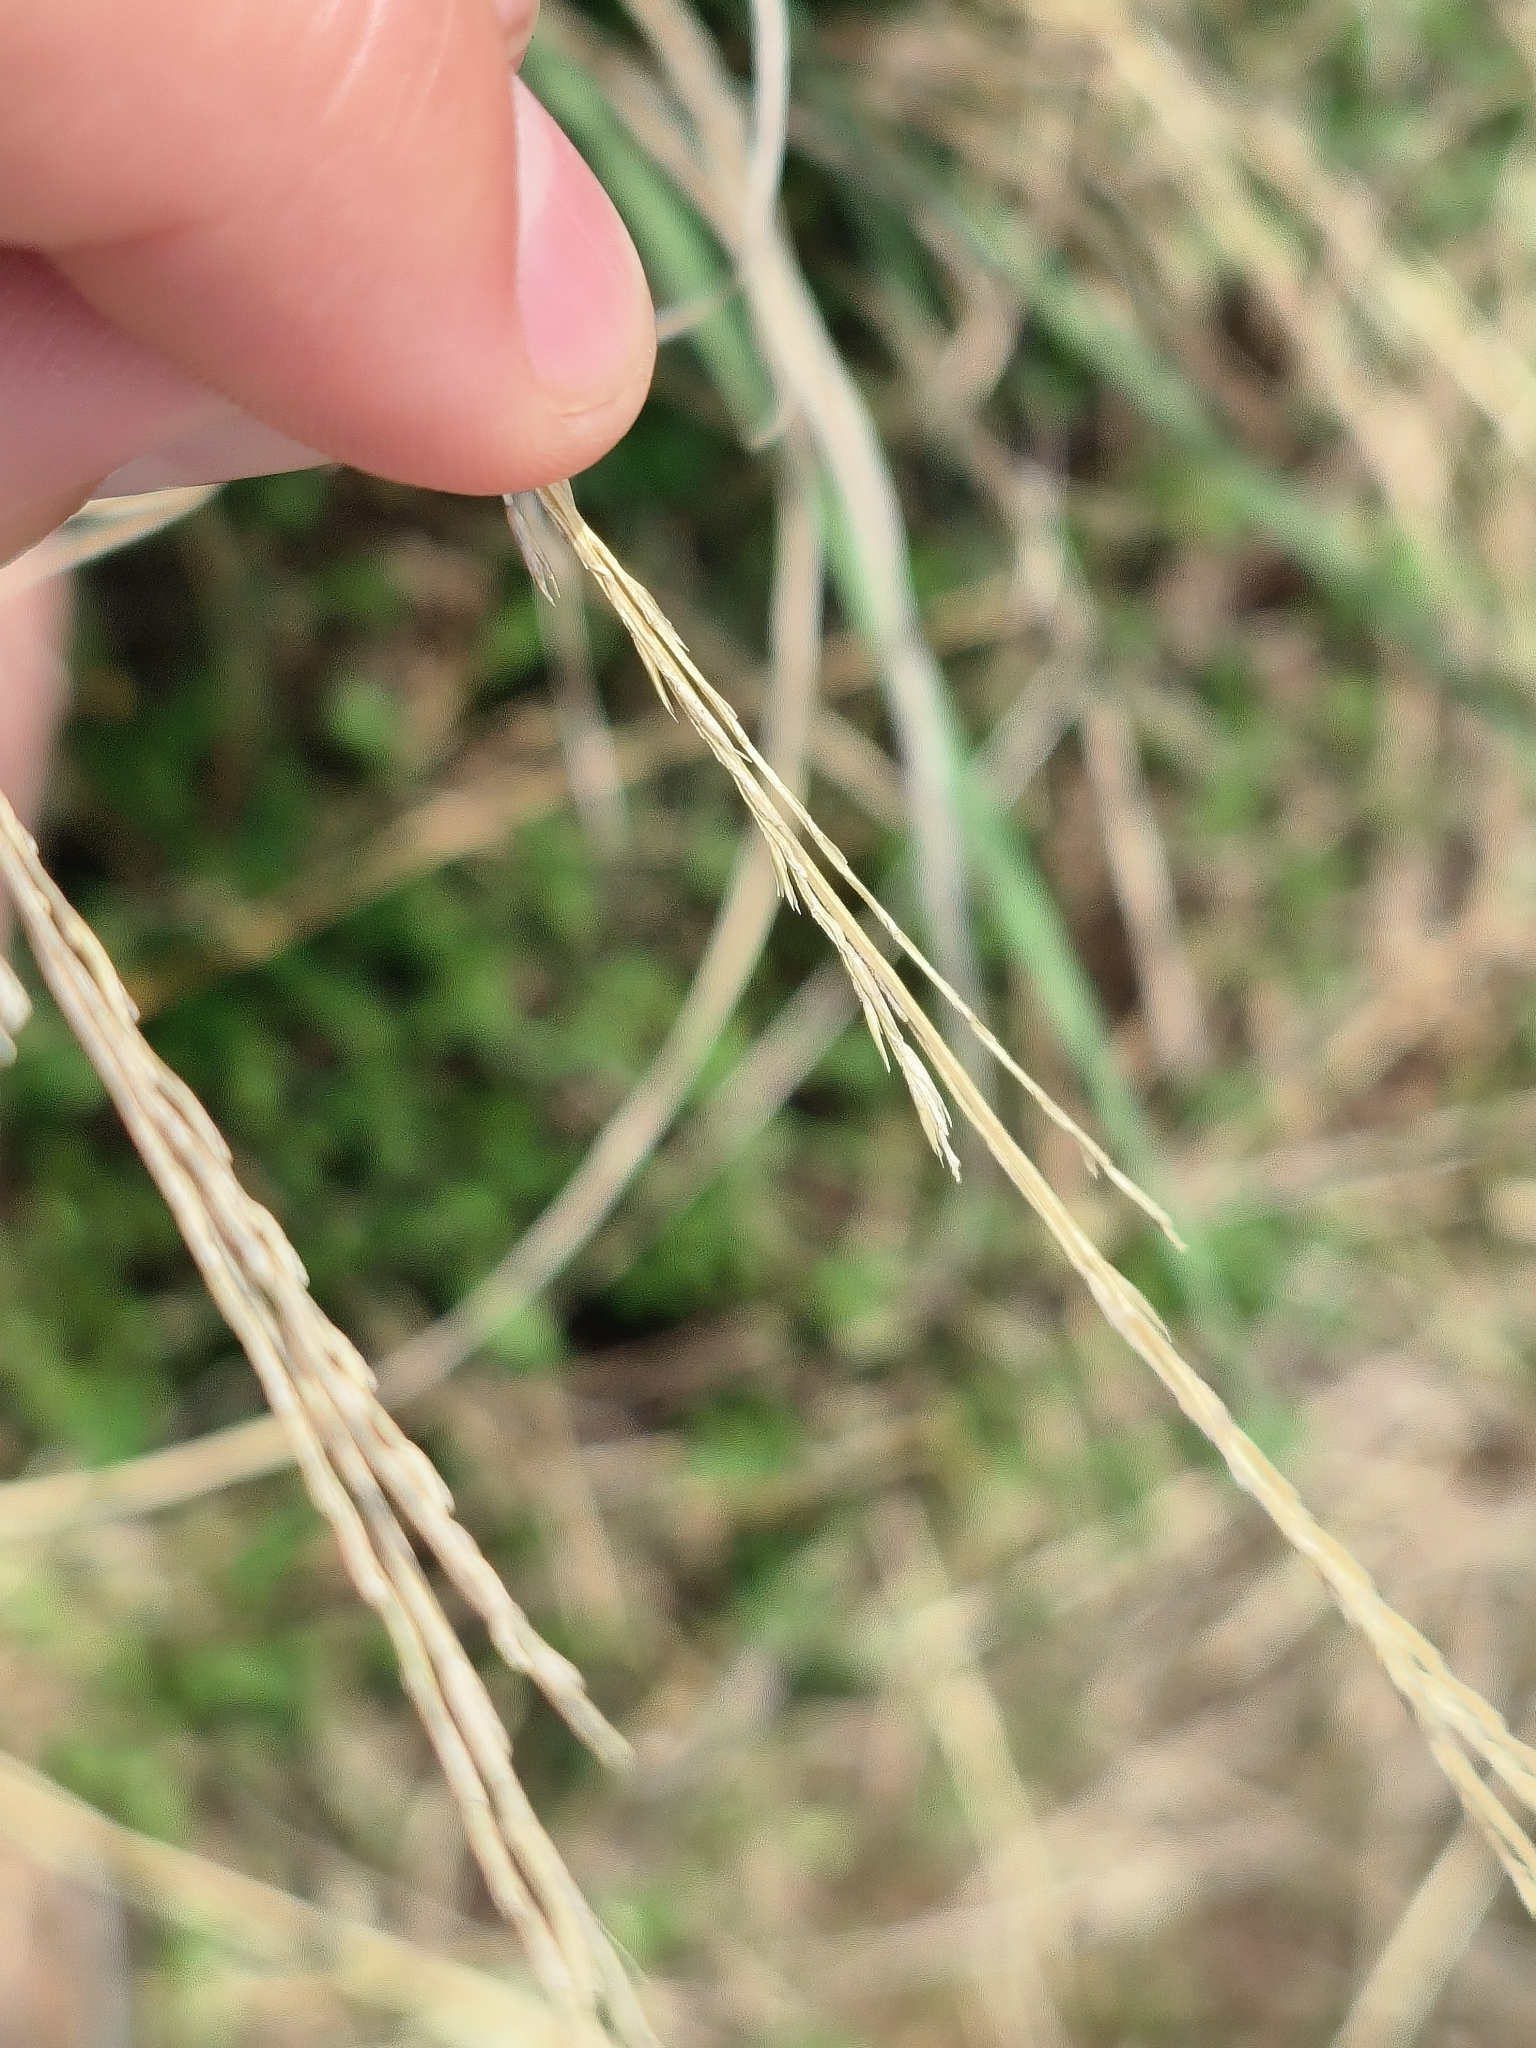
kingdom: Plantae
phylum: Tracheophyta
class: Liliopsida
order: Poales
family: Poaceae
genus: Eragrostis
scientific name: Eragrostis plana
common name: South african lovegrass
